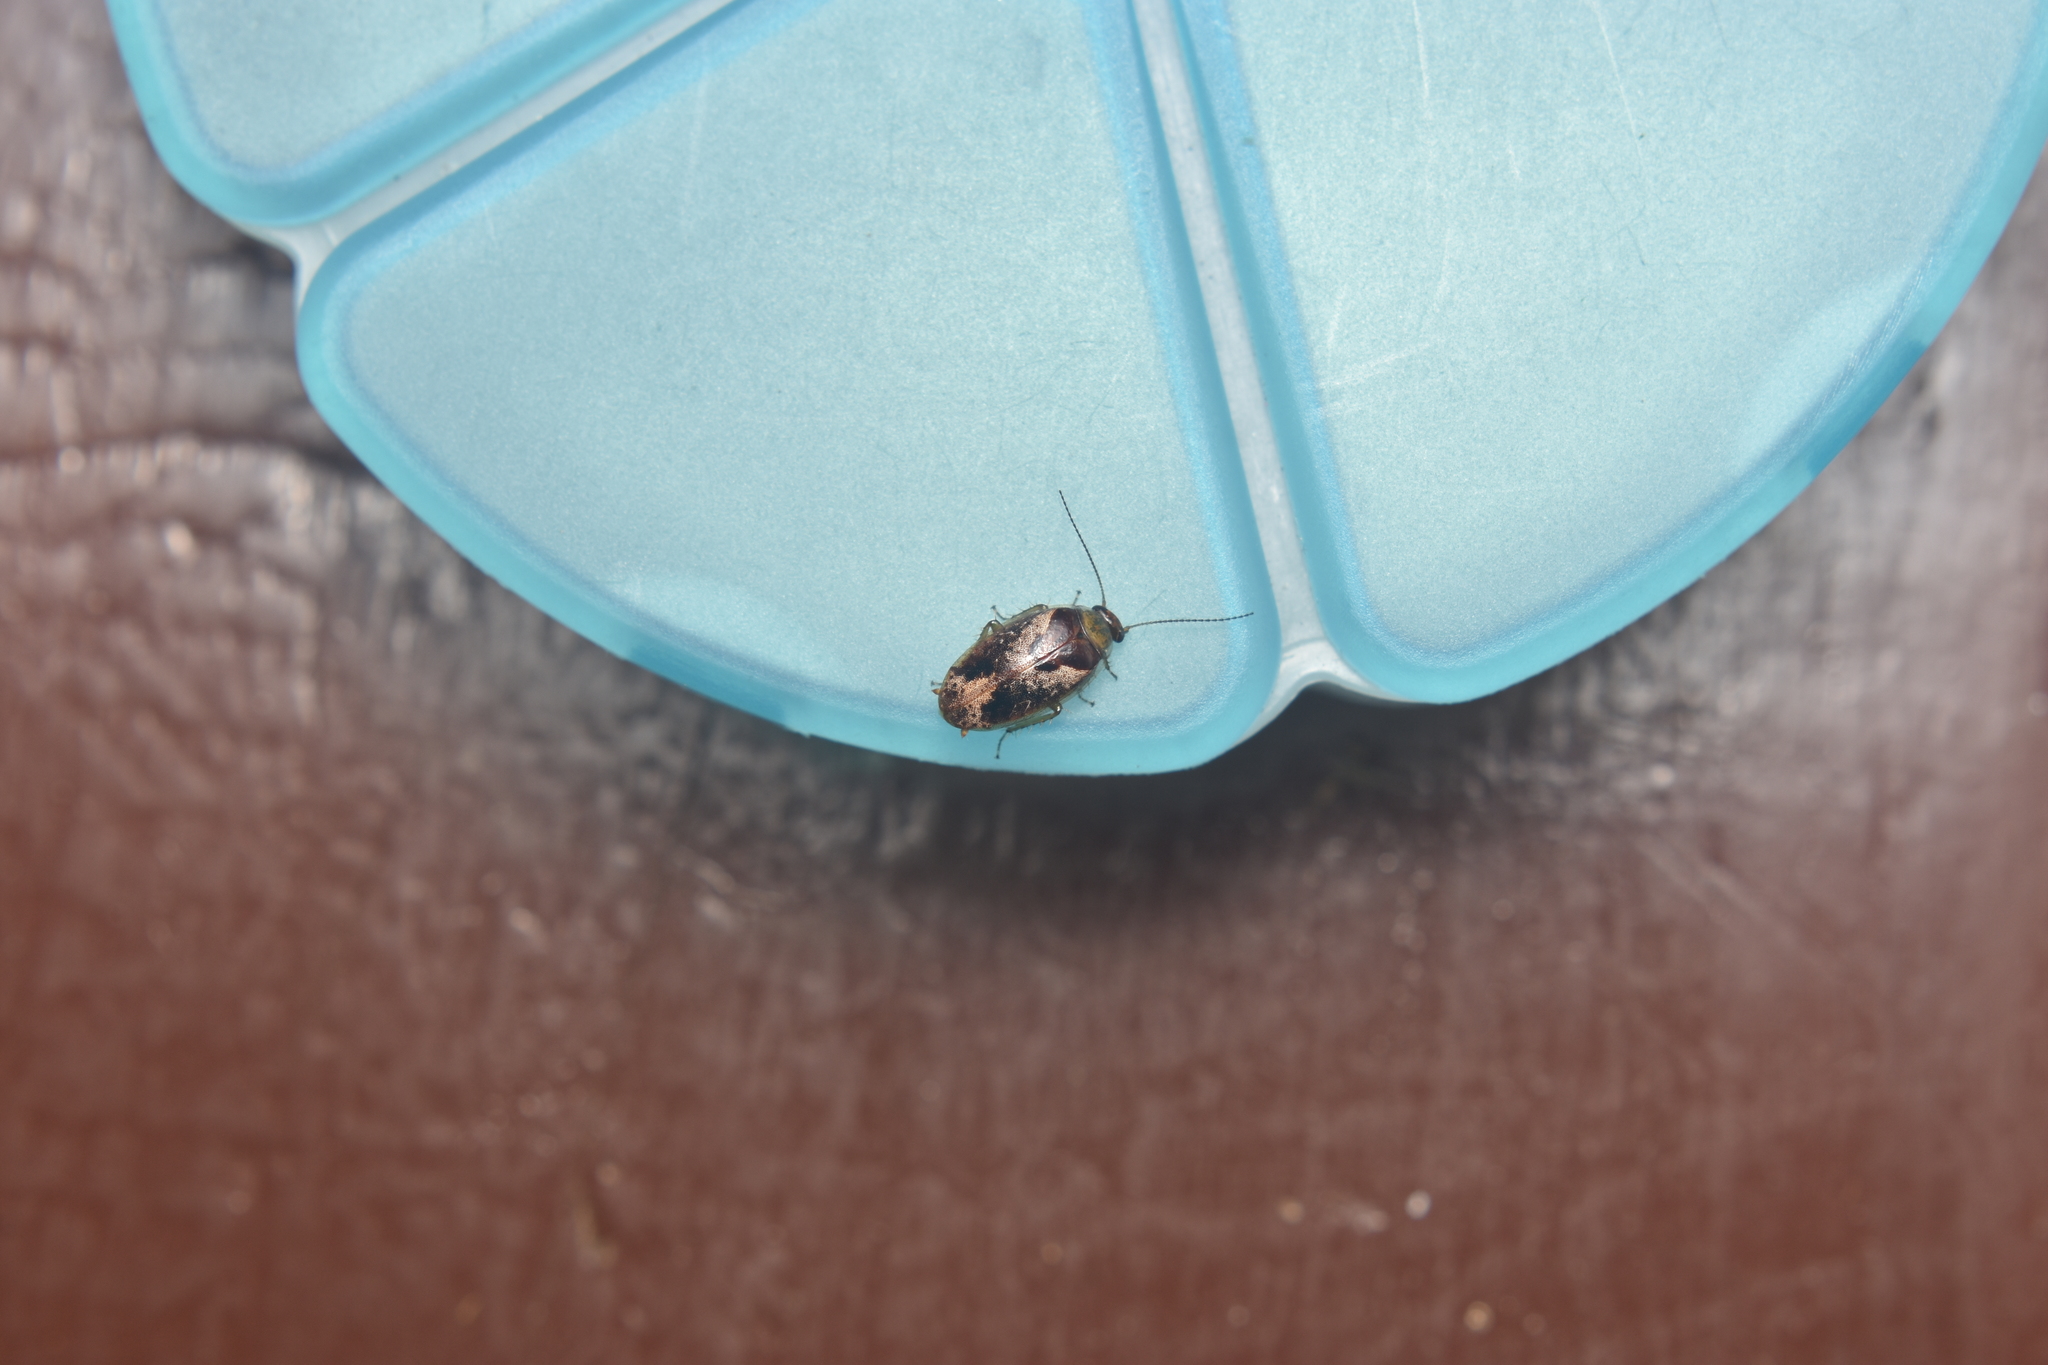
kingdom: Animalia
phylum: Arthropoda
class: Insecta
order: Blattodea
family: Ectobiidae
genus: Plectoptera
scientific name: Plectoptera
